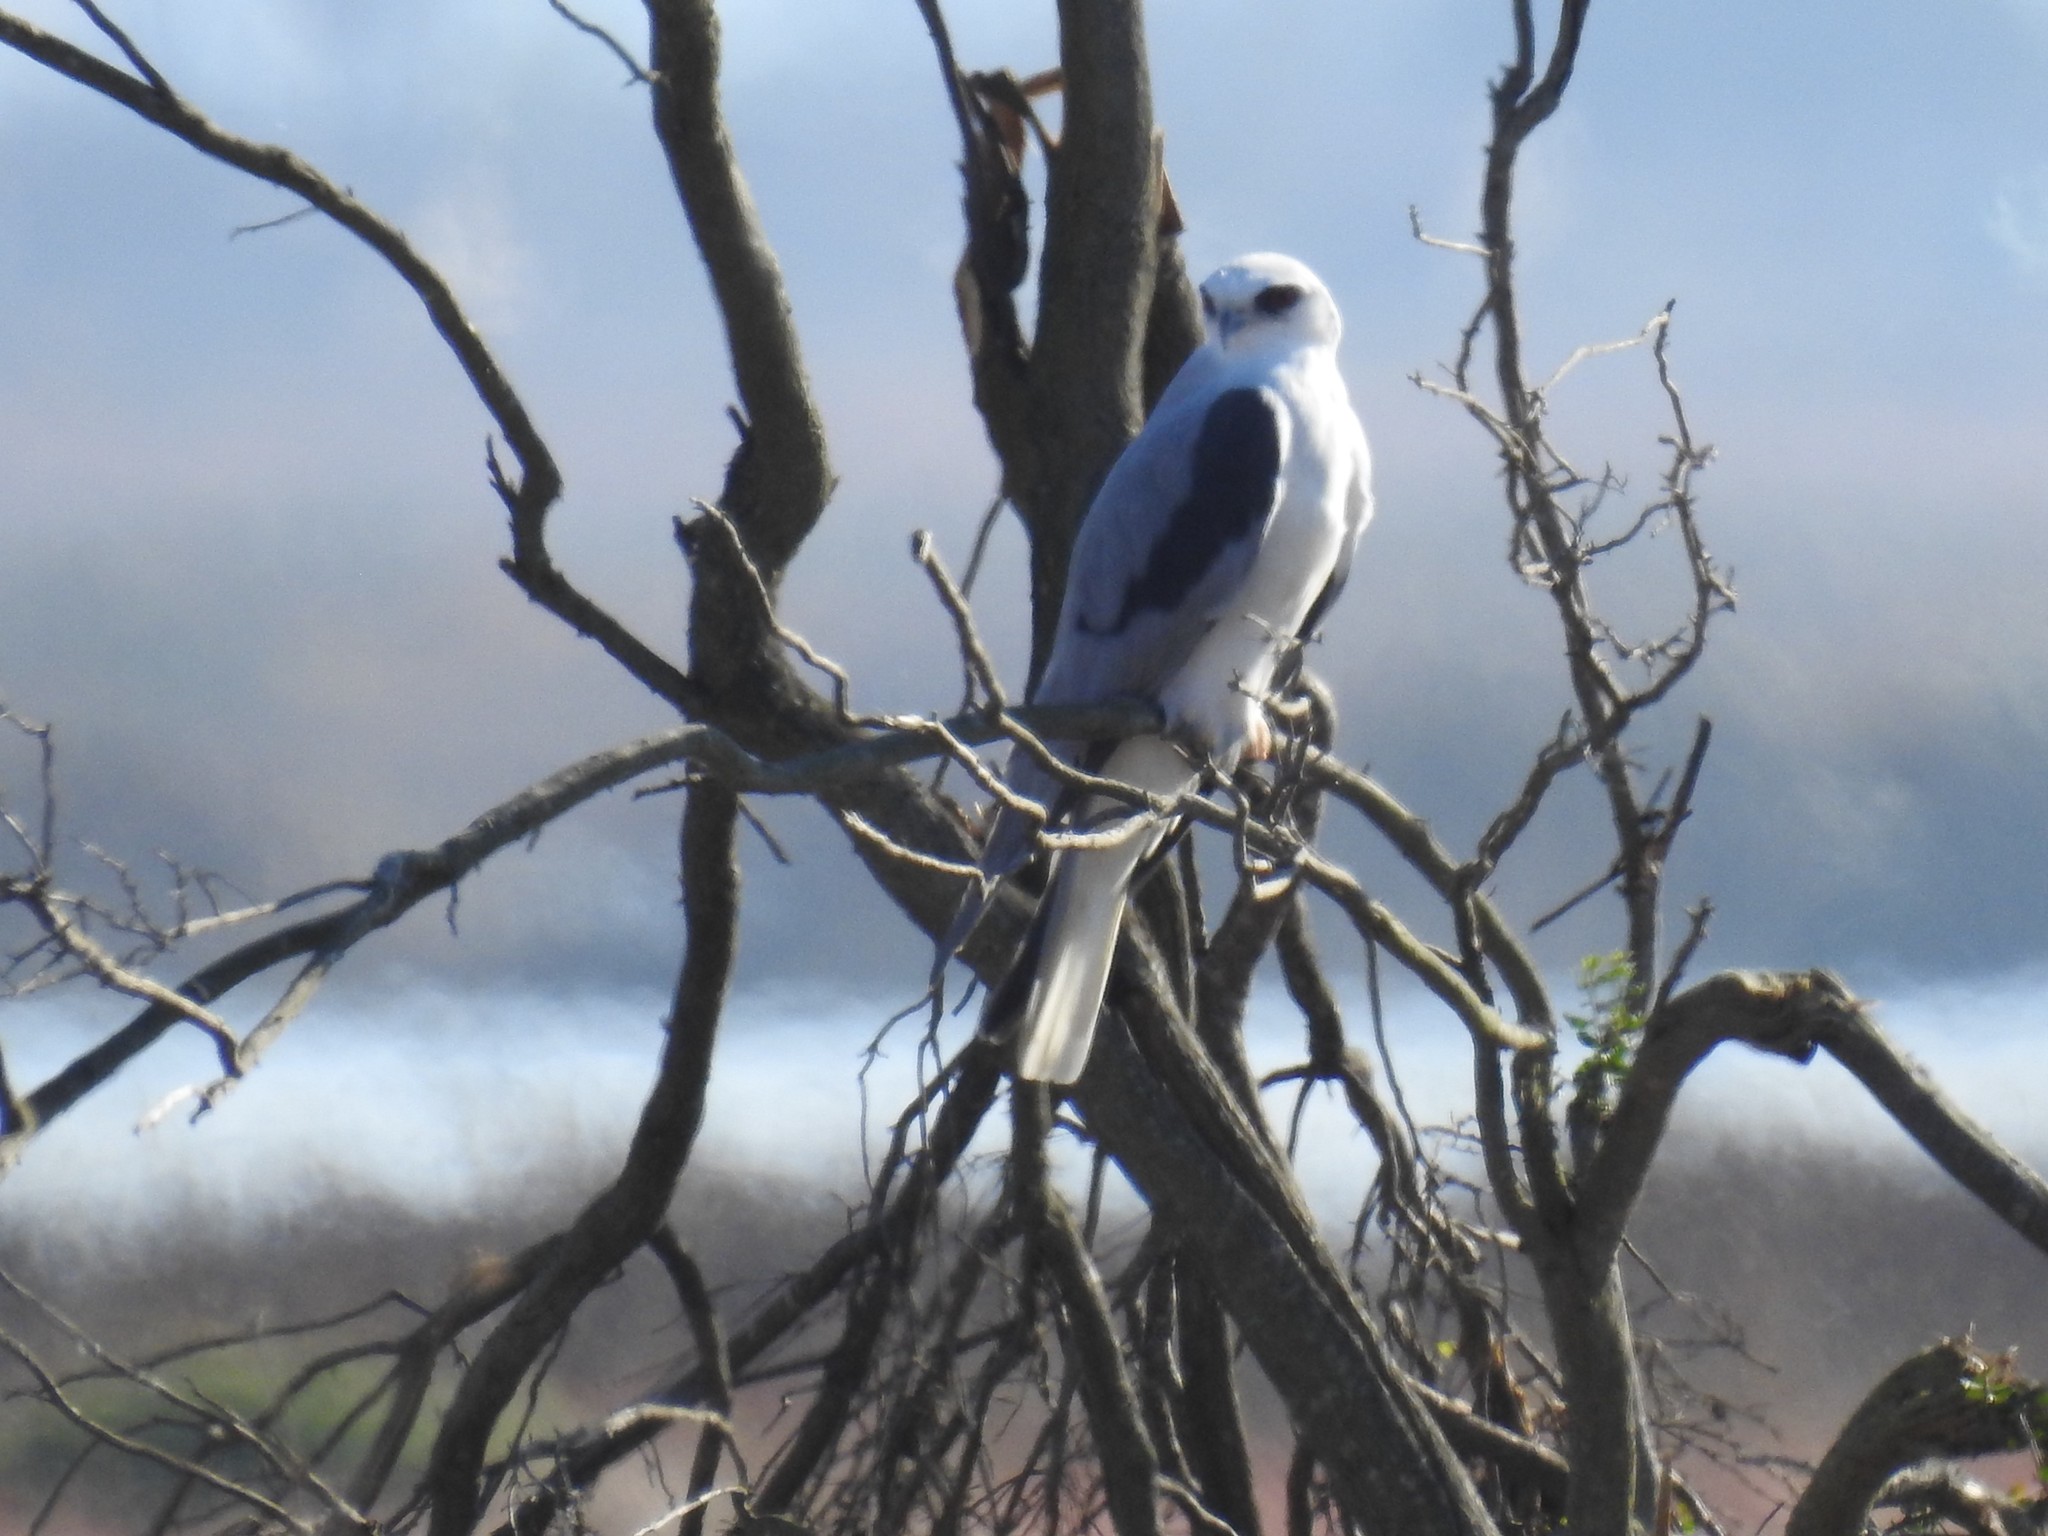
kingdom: Animalia
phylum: Chordata
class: Aves
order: Accipitriformes
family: Accipitridae
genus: Elanus
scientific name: Elanus leucurus
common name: White-tailed kite
